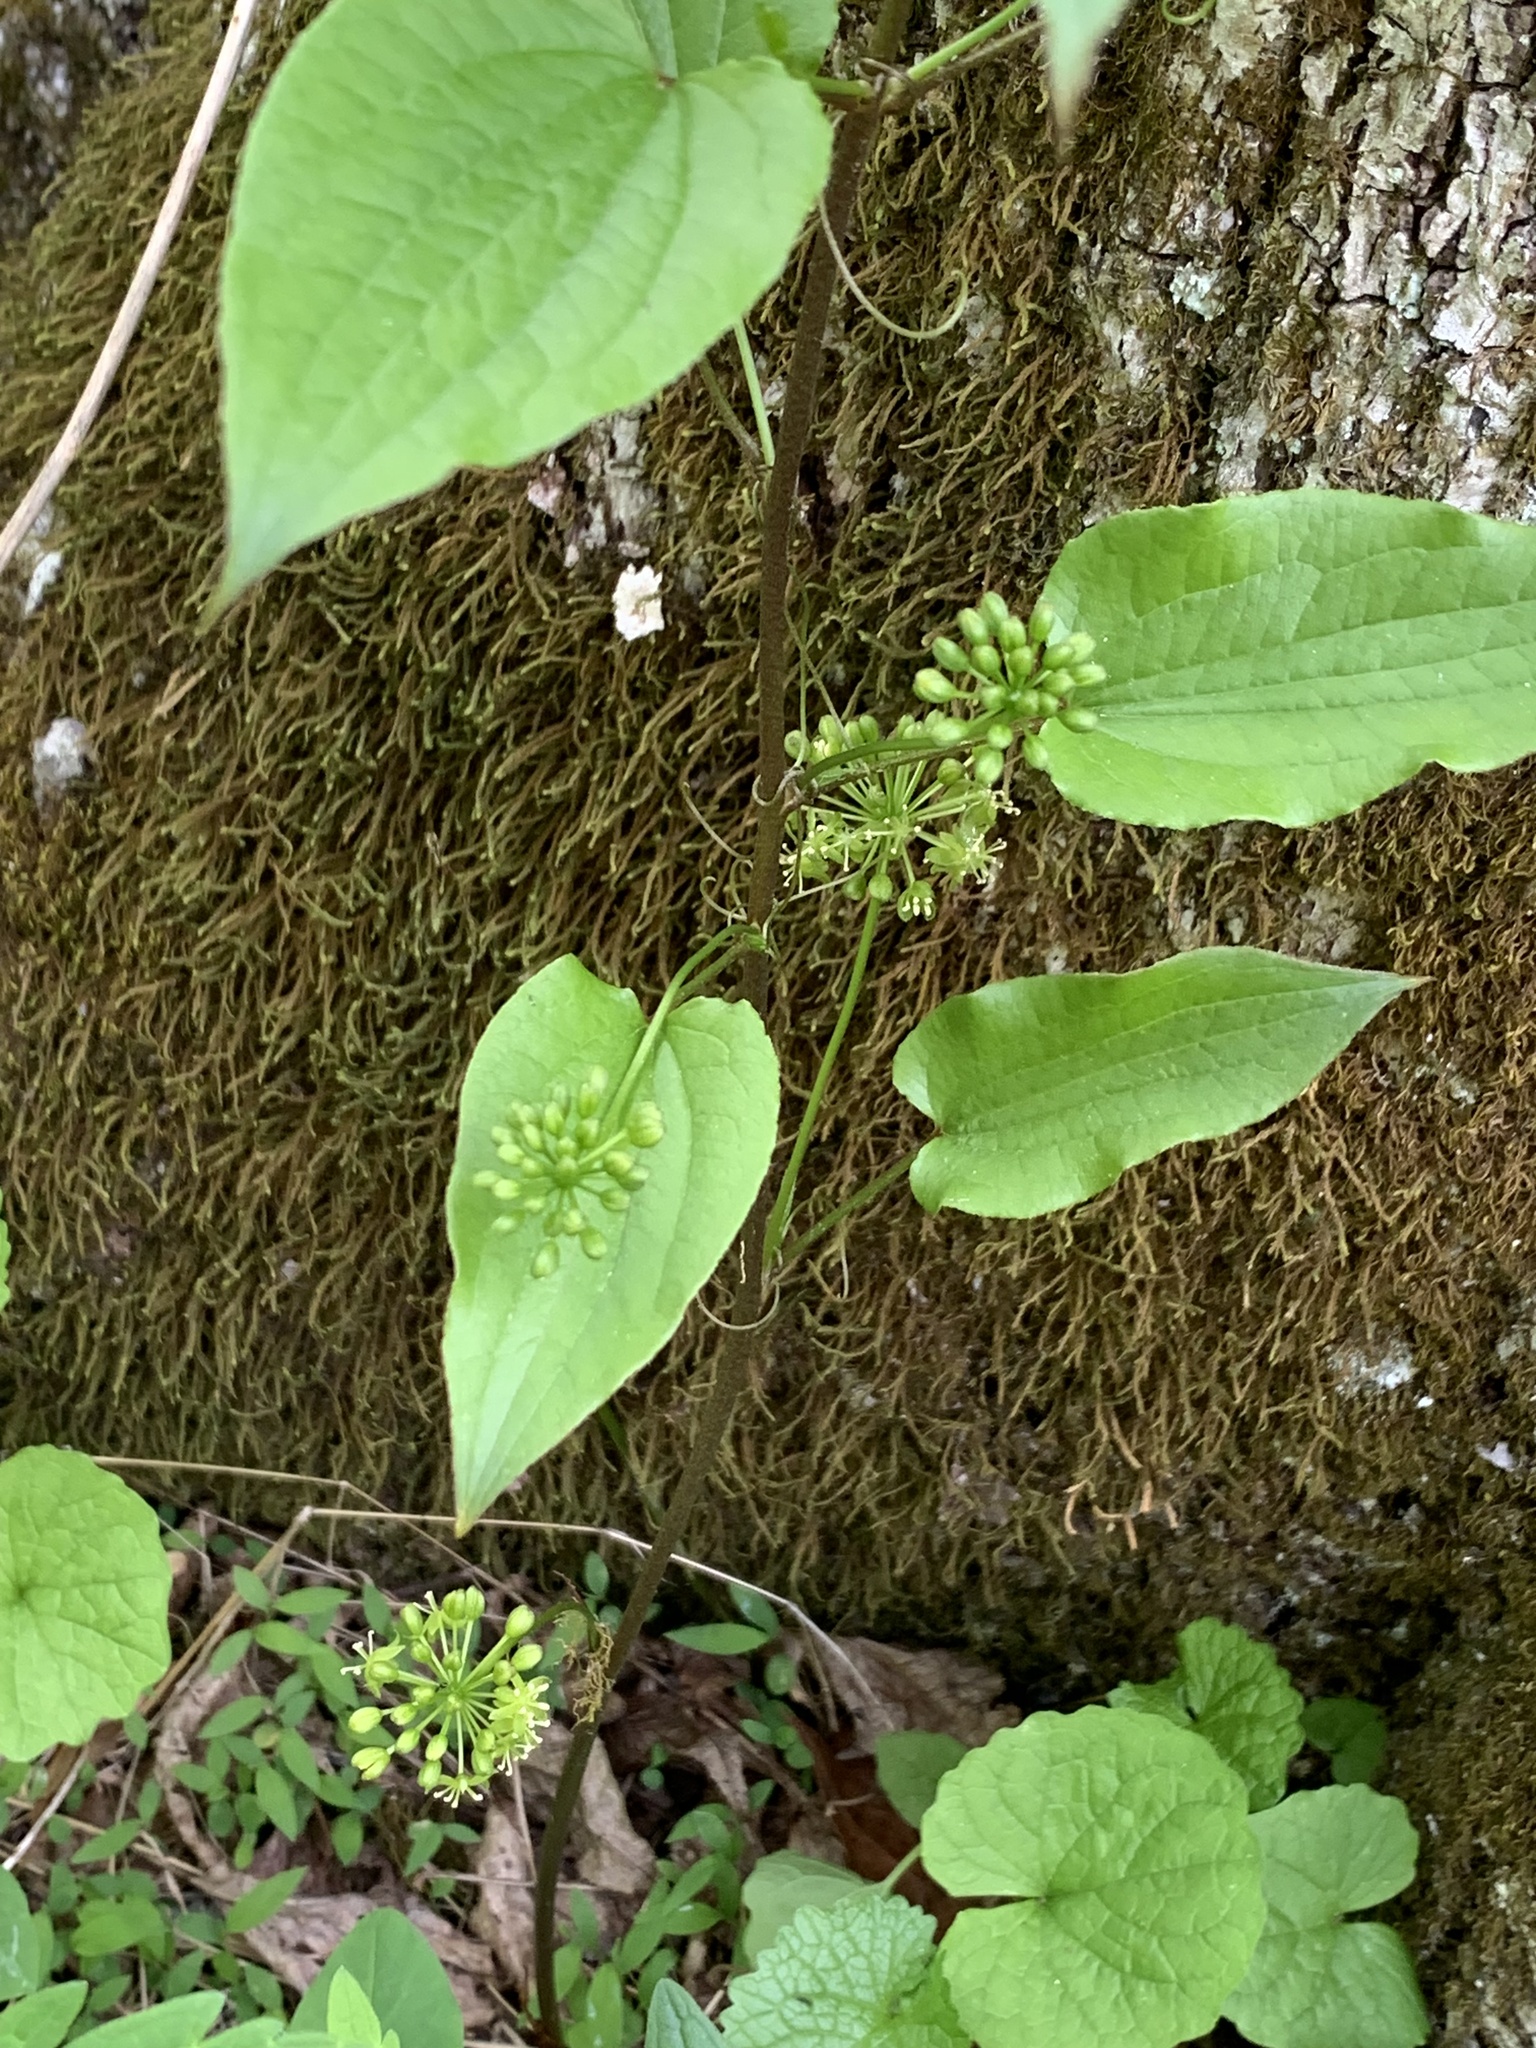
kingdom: Plantae
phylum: Tracheophyta
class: Liliopsida
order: Liliales
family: Smilacaceae
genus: Smilax
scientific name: Smilax pulverulenta
